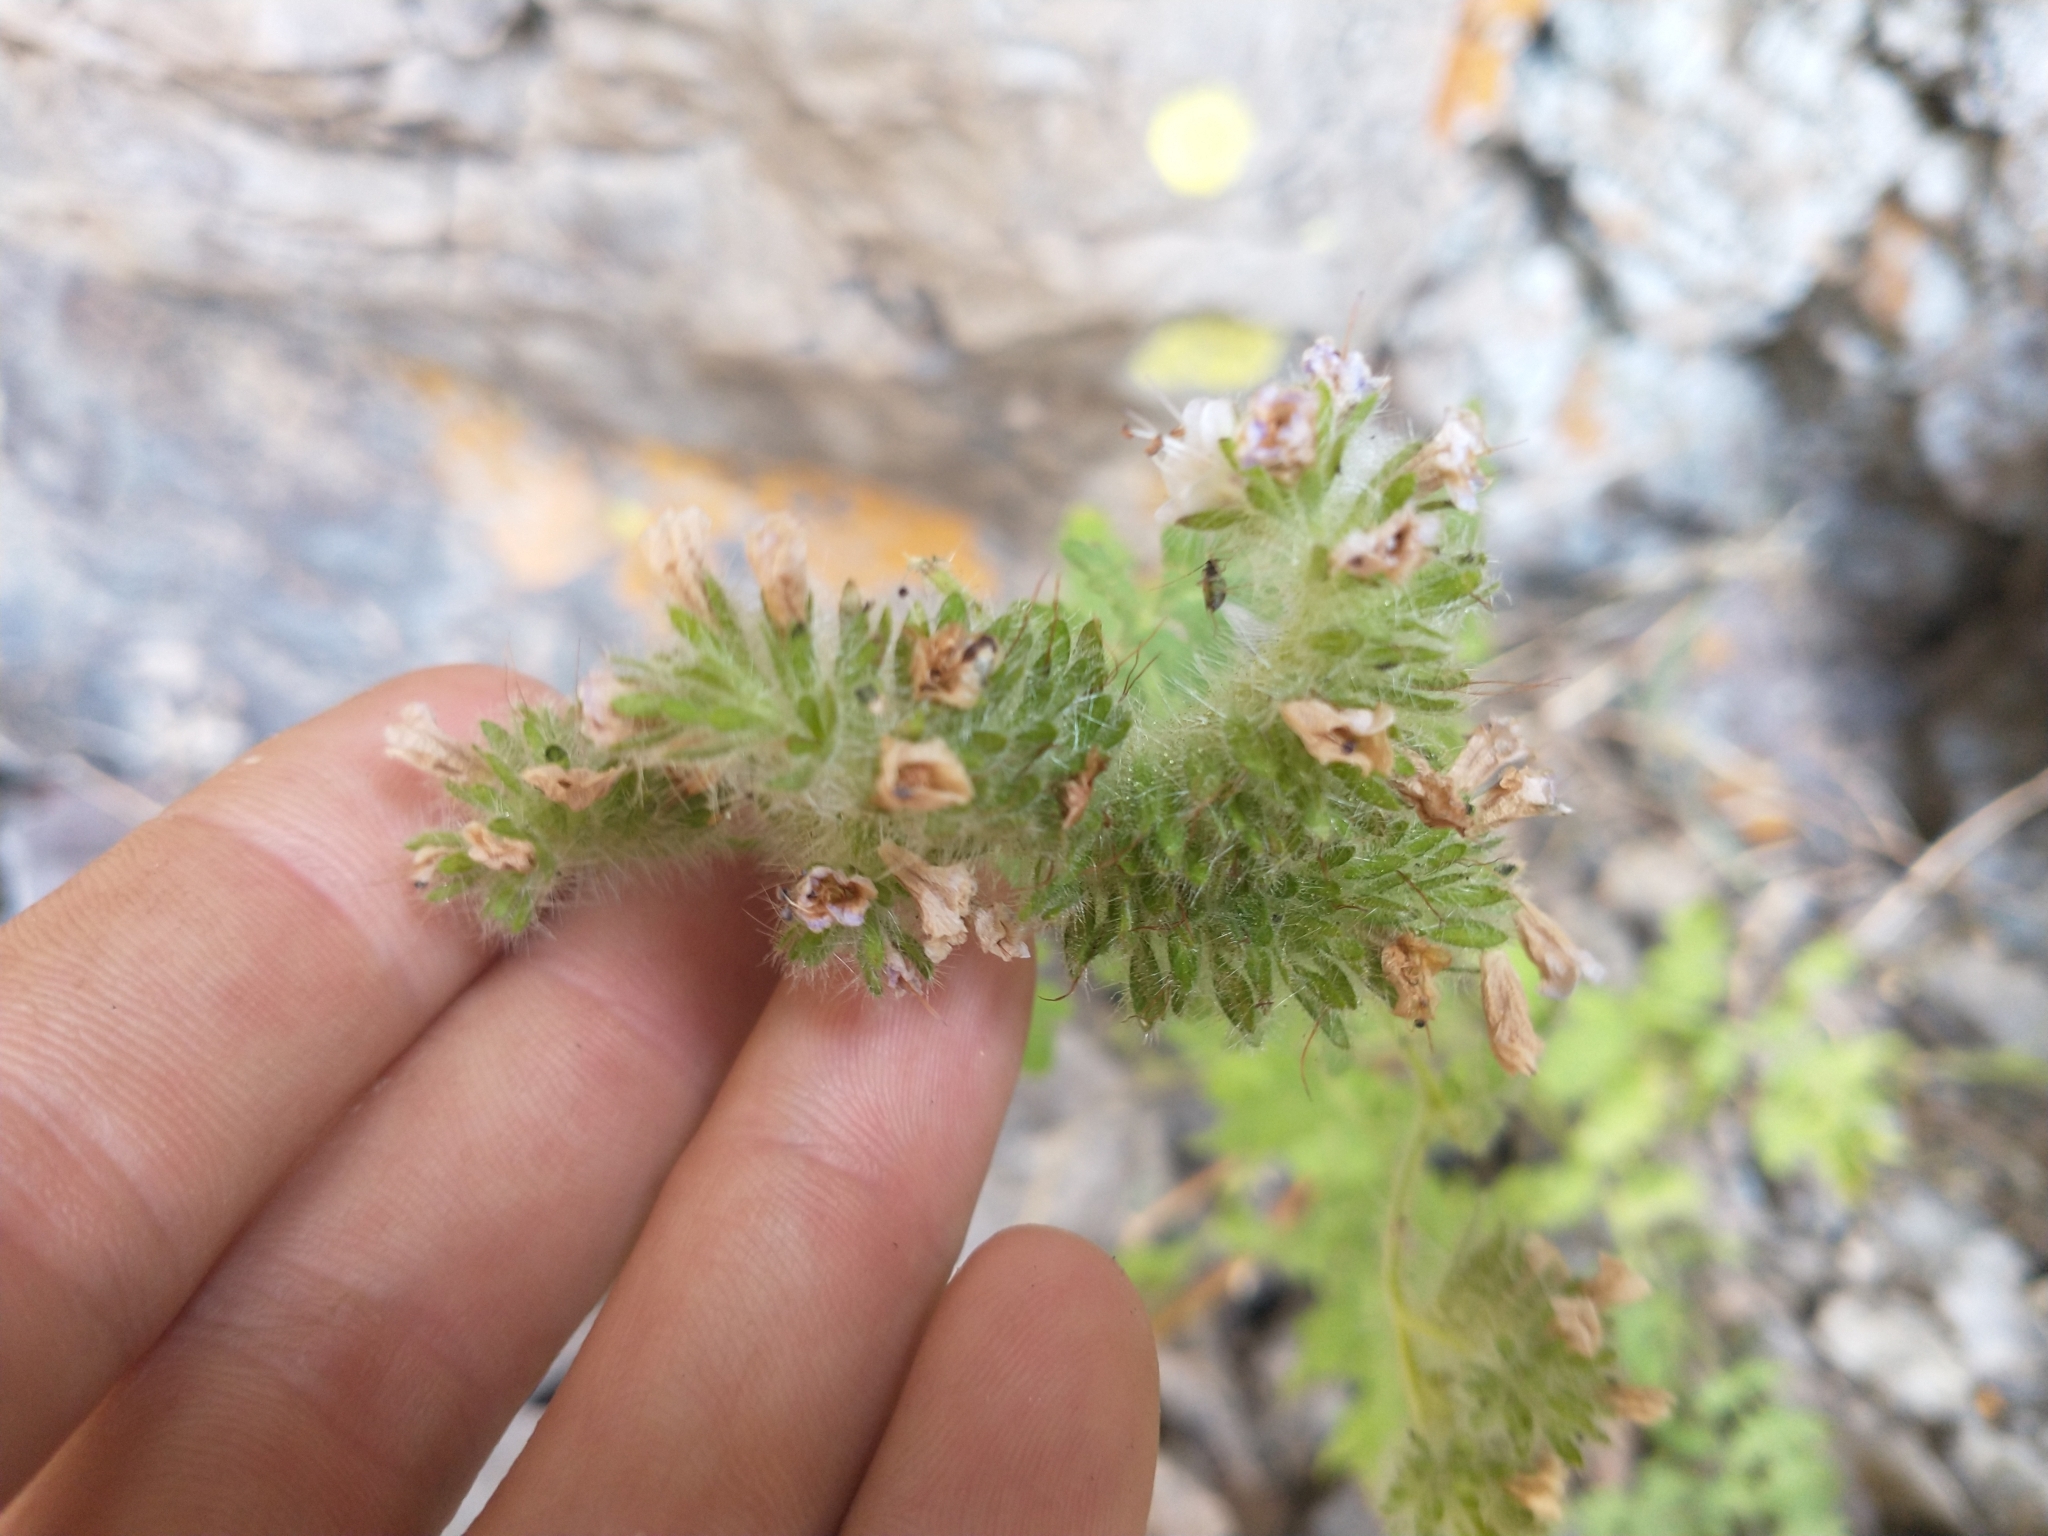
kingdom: Plantae
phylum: Tracheophyta
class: Magnoliopsida
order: Boraginales
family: Hydrophyllaceae
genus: Phacelia
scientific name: Phacelia ramosissima
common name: Branching phacelia
